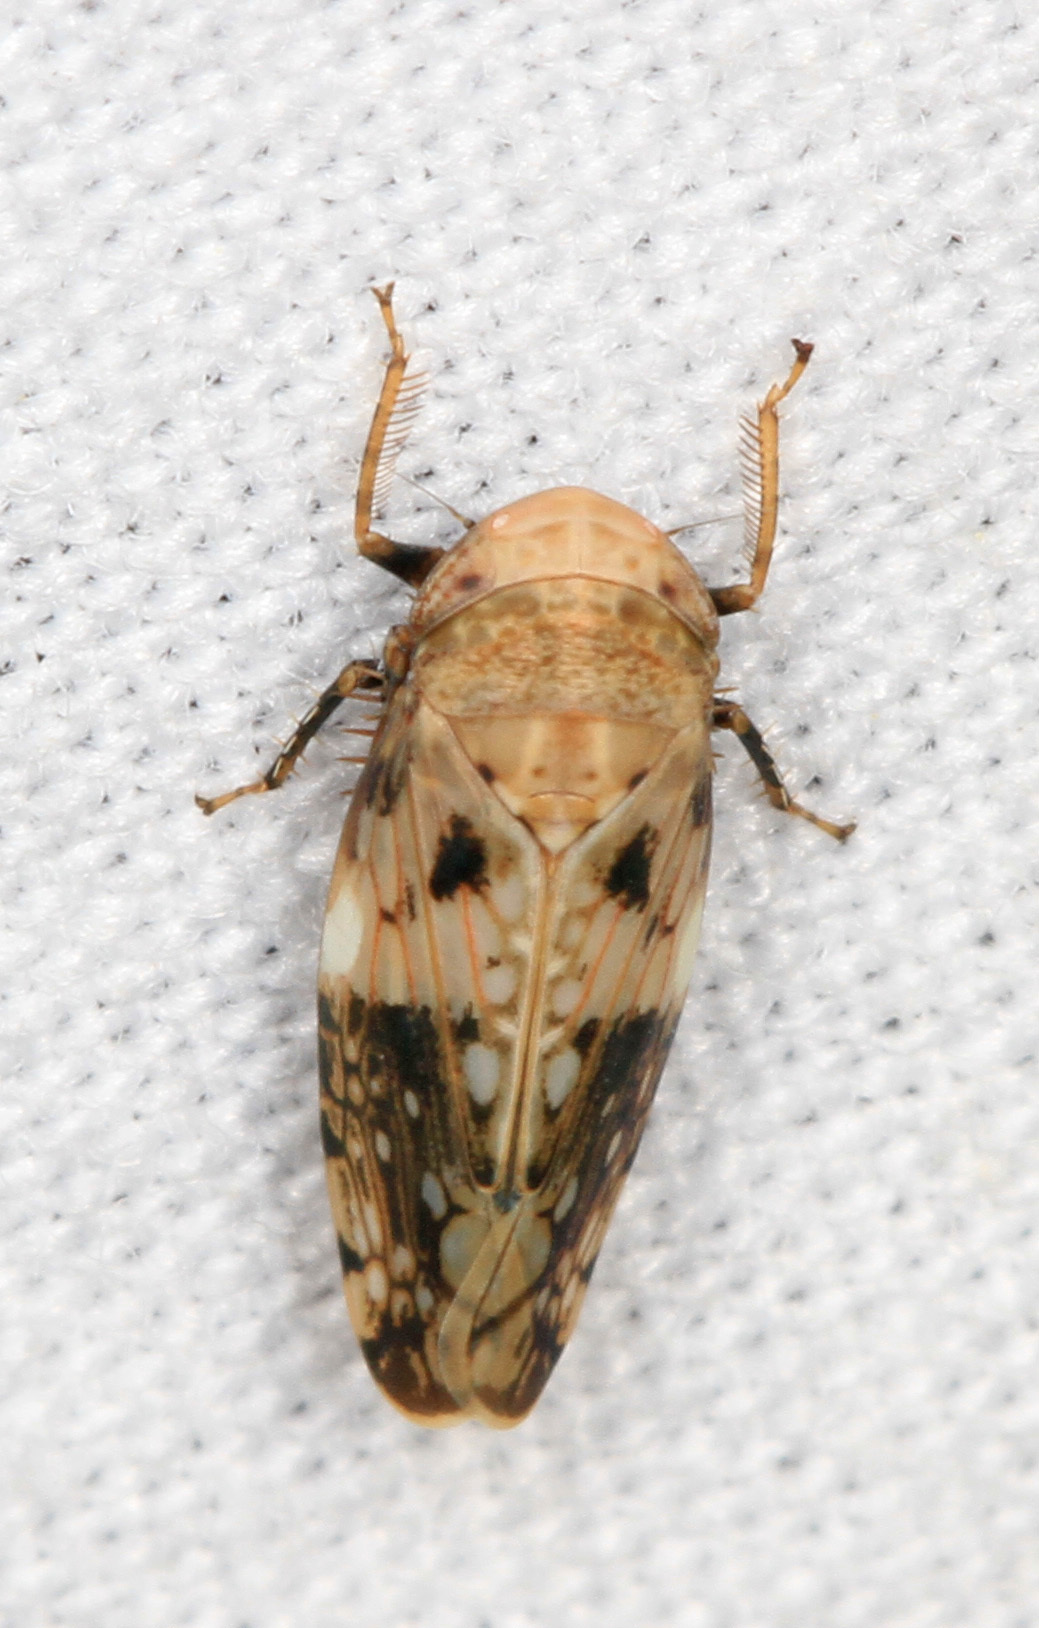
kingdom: Animalia
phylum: Arthropoda
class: Insecta
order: Hemiptera
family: Cicadellidae
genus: Menosoma
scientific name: Menosoma cinctum
